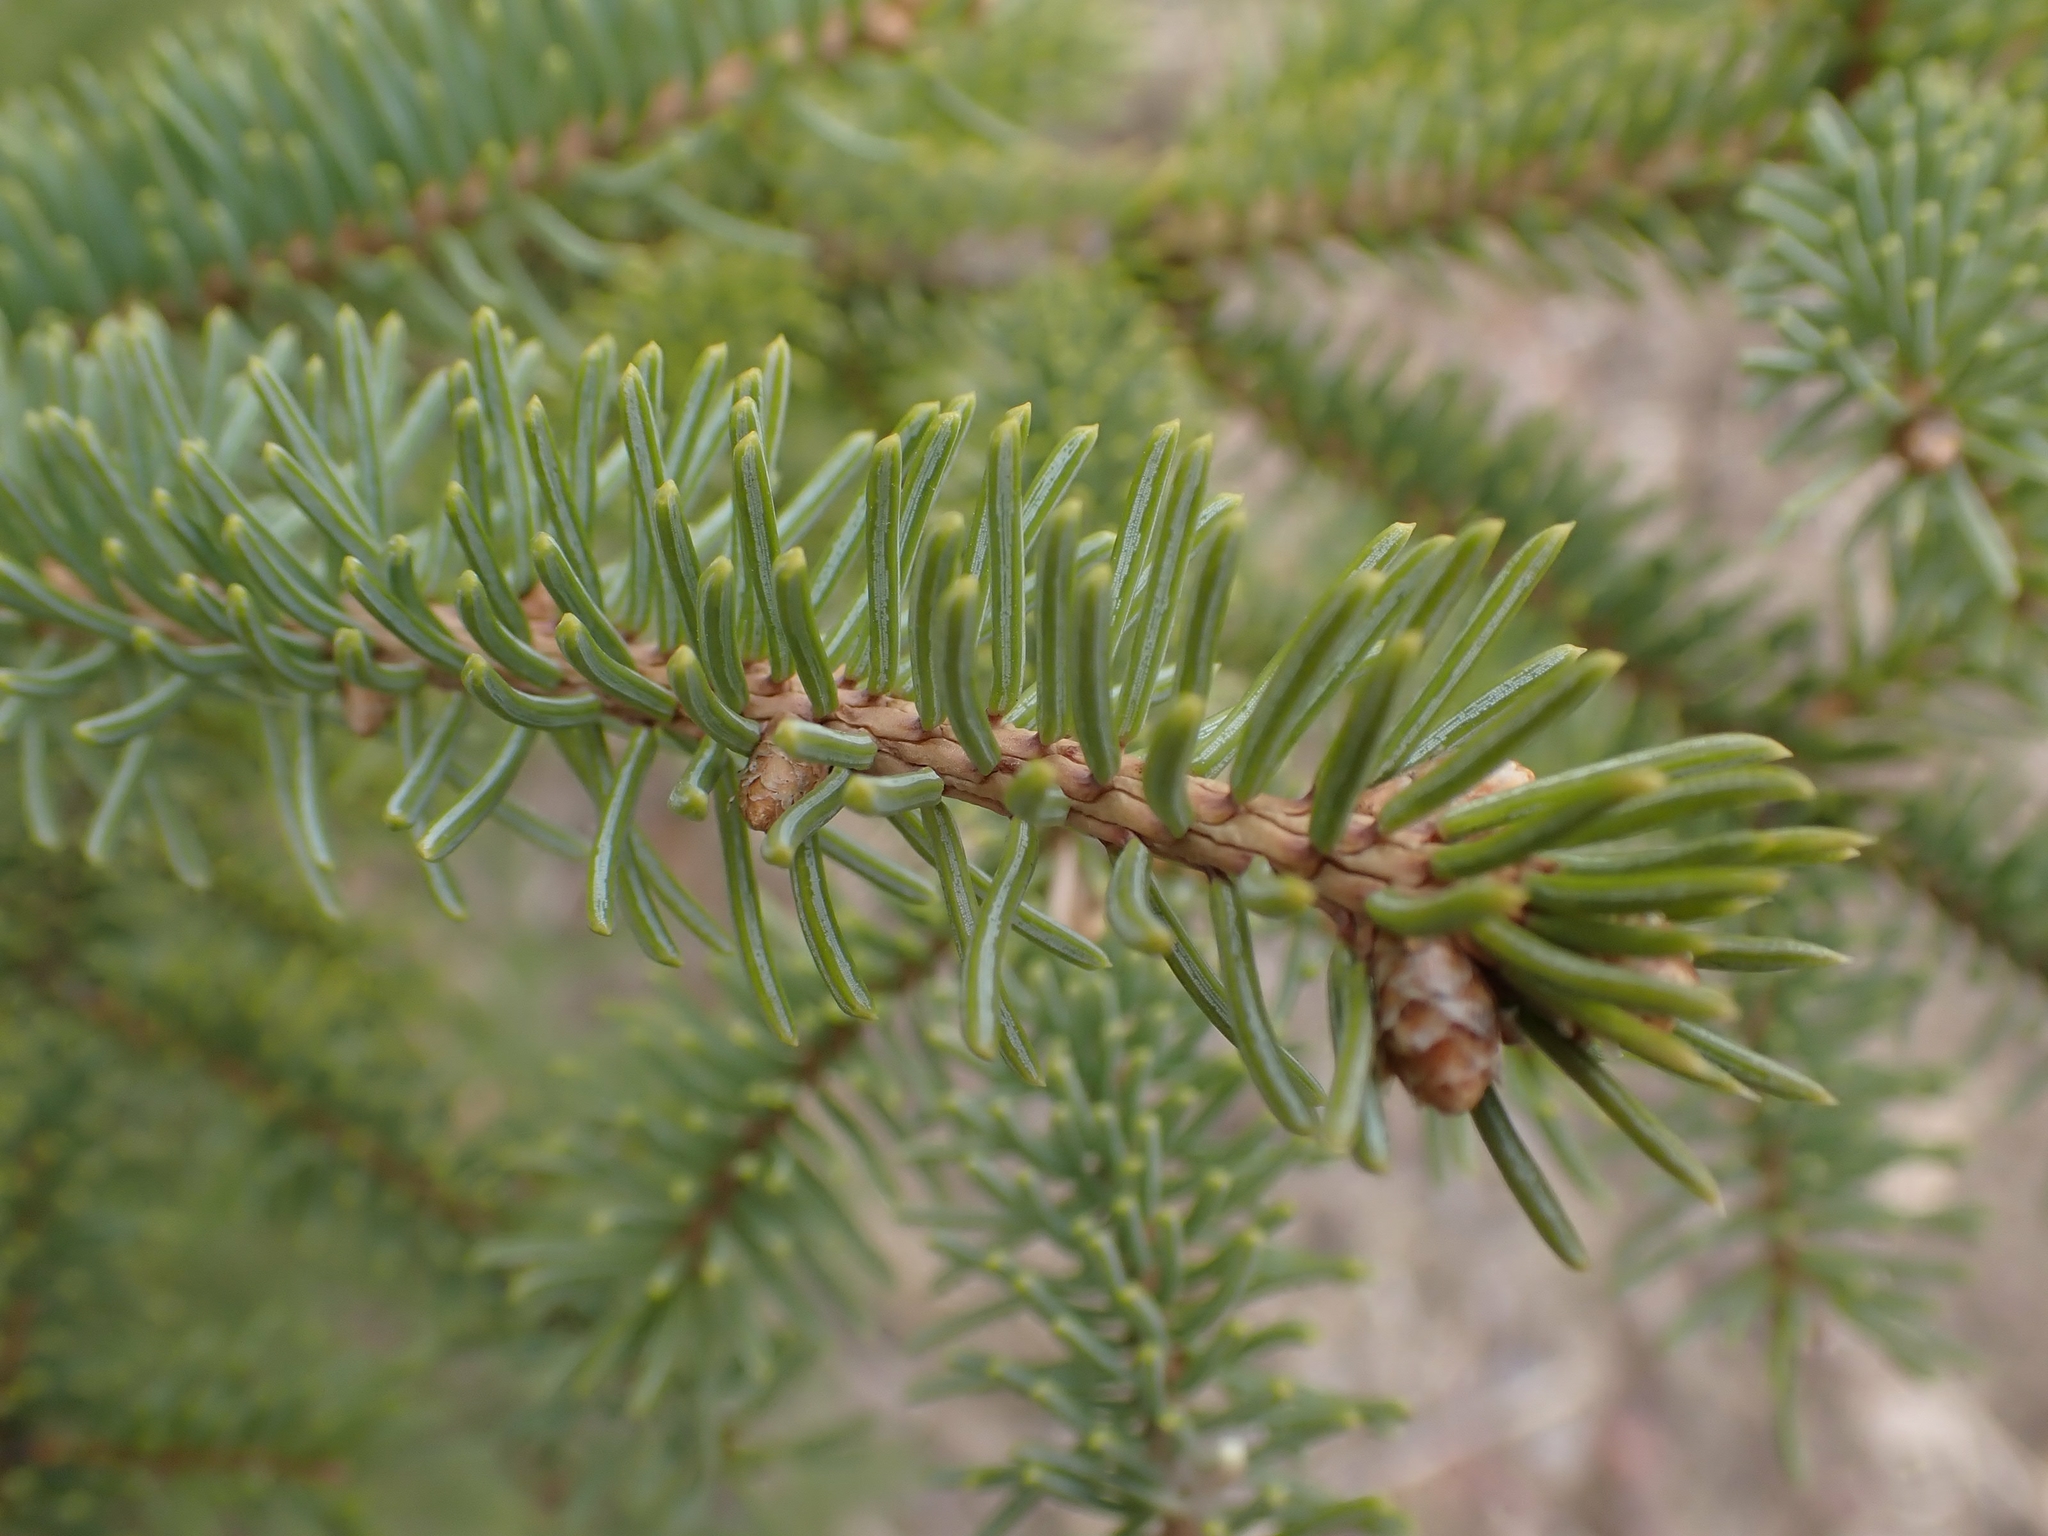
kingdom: Plantae
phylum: Tracheophyta
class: Pinopsida
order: Pinales
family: Pinaceae
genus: Picea
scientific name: Picea glauca
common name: White spruce
